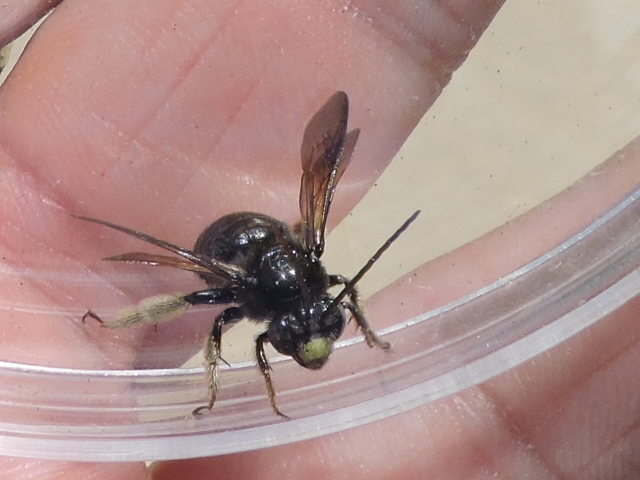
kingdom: Animalia
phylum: Arthropoda
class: Insecta
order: Hymenoptera
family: Apidae
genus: Melissodes
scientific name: Melissodes bimaculatus
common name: Two-spotted long-horned bee
